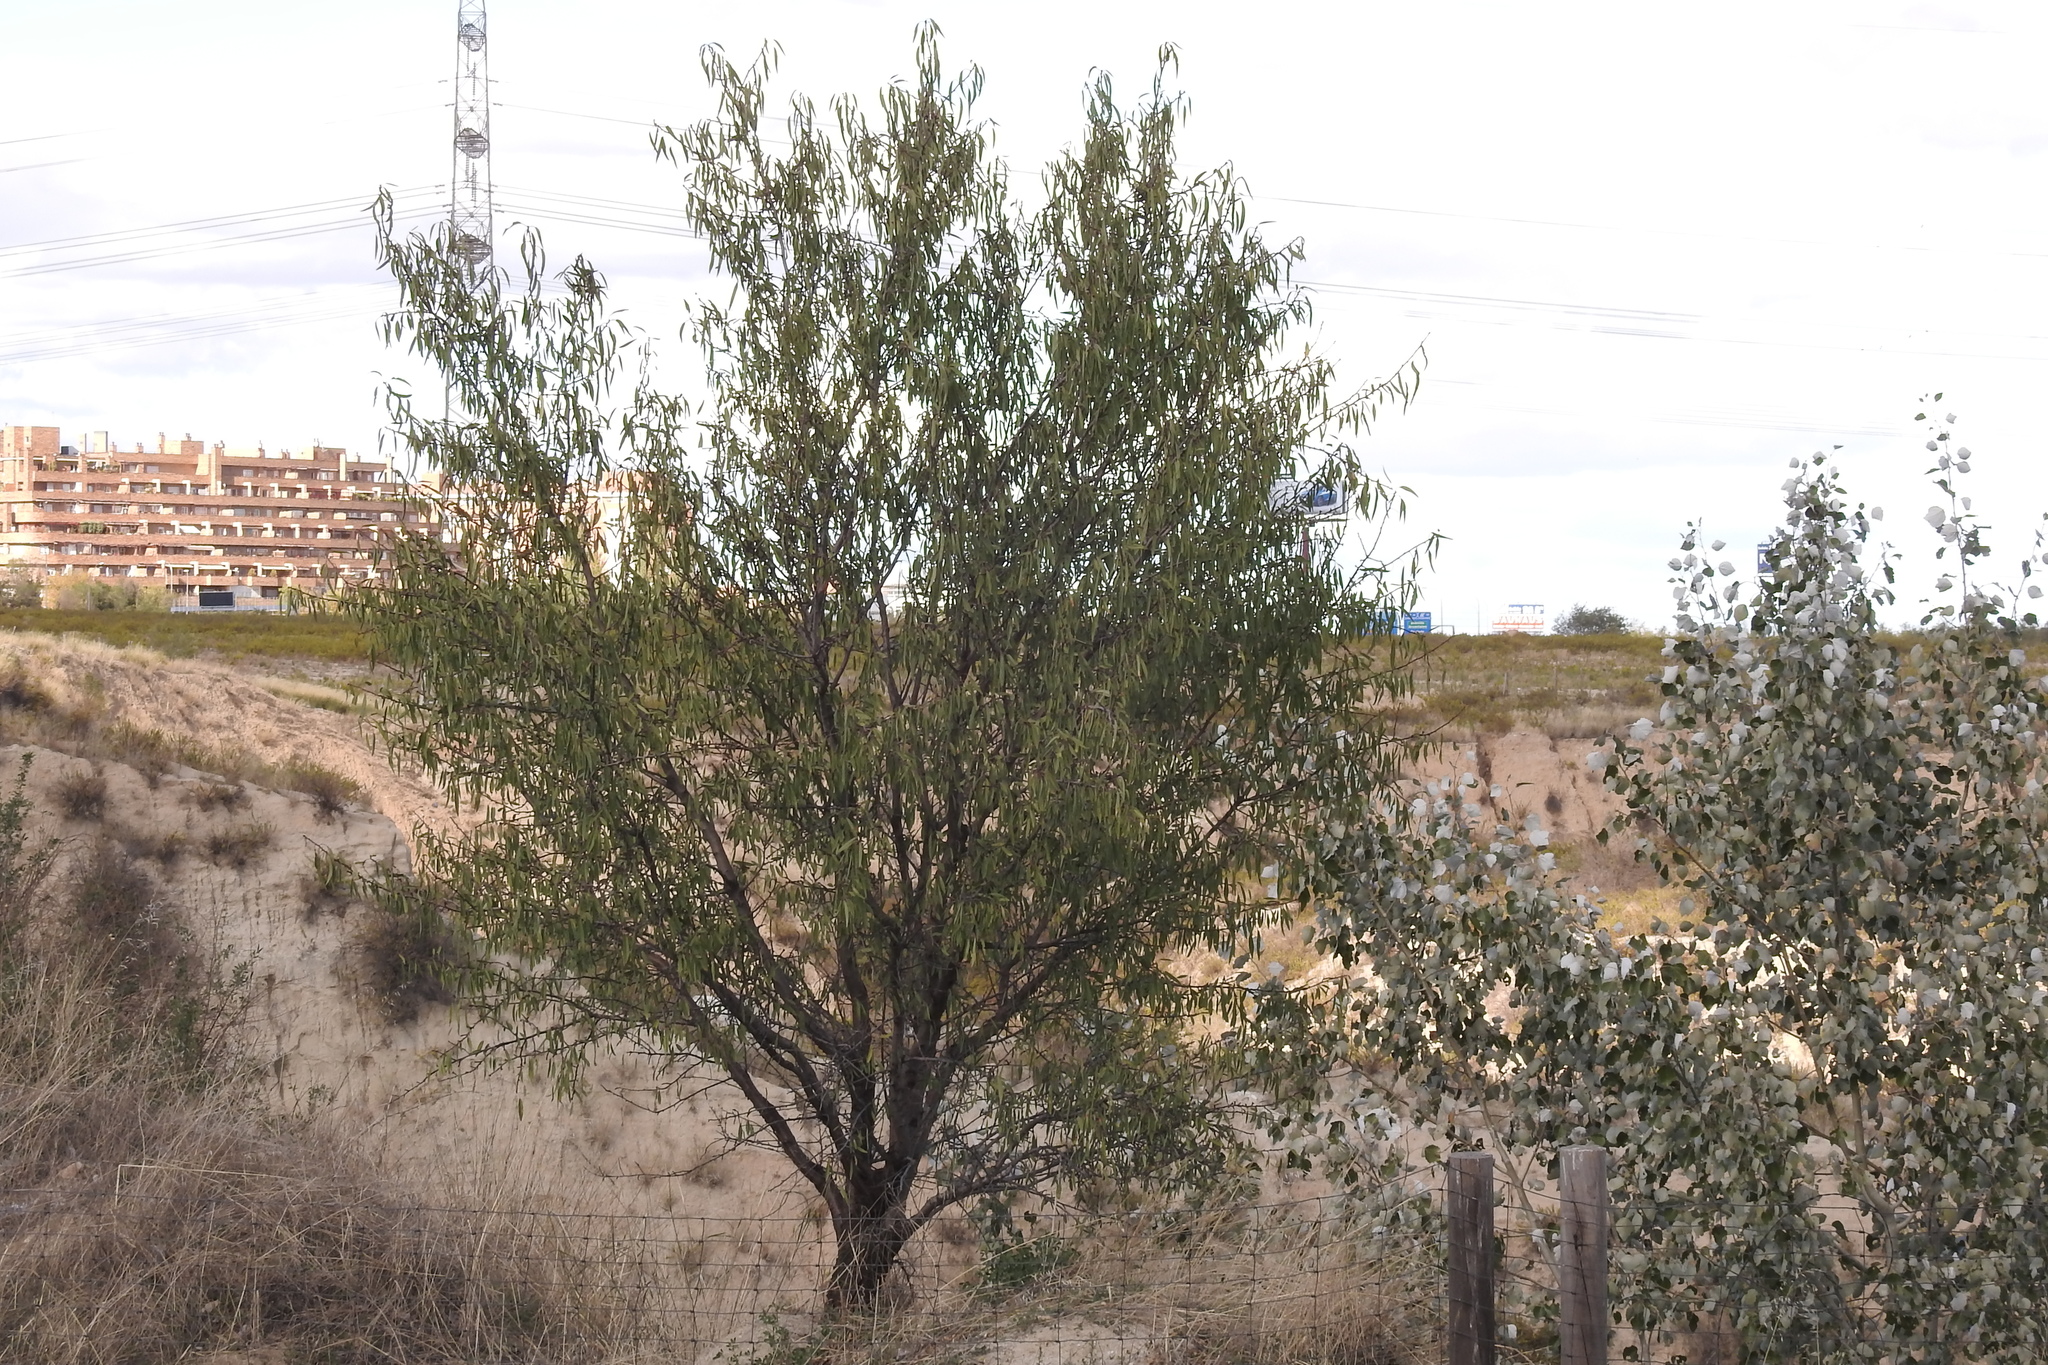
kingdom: Plantae
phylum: Tracheophyta
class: Magnoliopsida
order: Rosales
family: Elaeagnaceae
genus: Elaeagnus
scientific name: Elaeagnus angustifolia
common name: Russian olive
